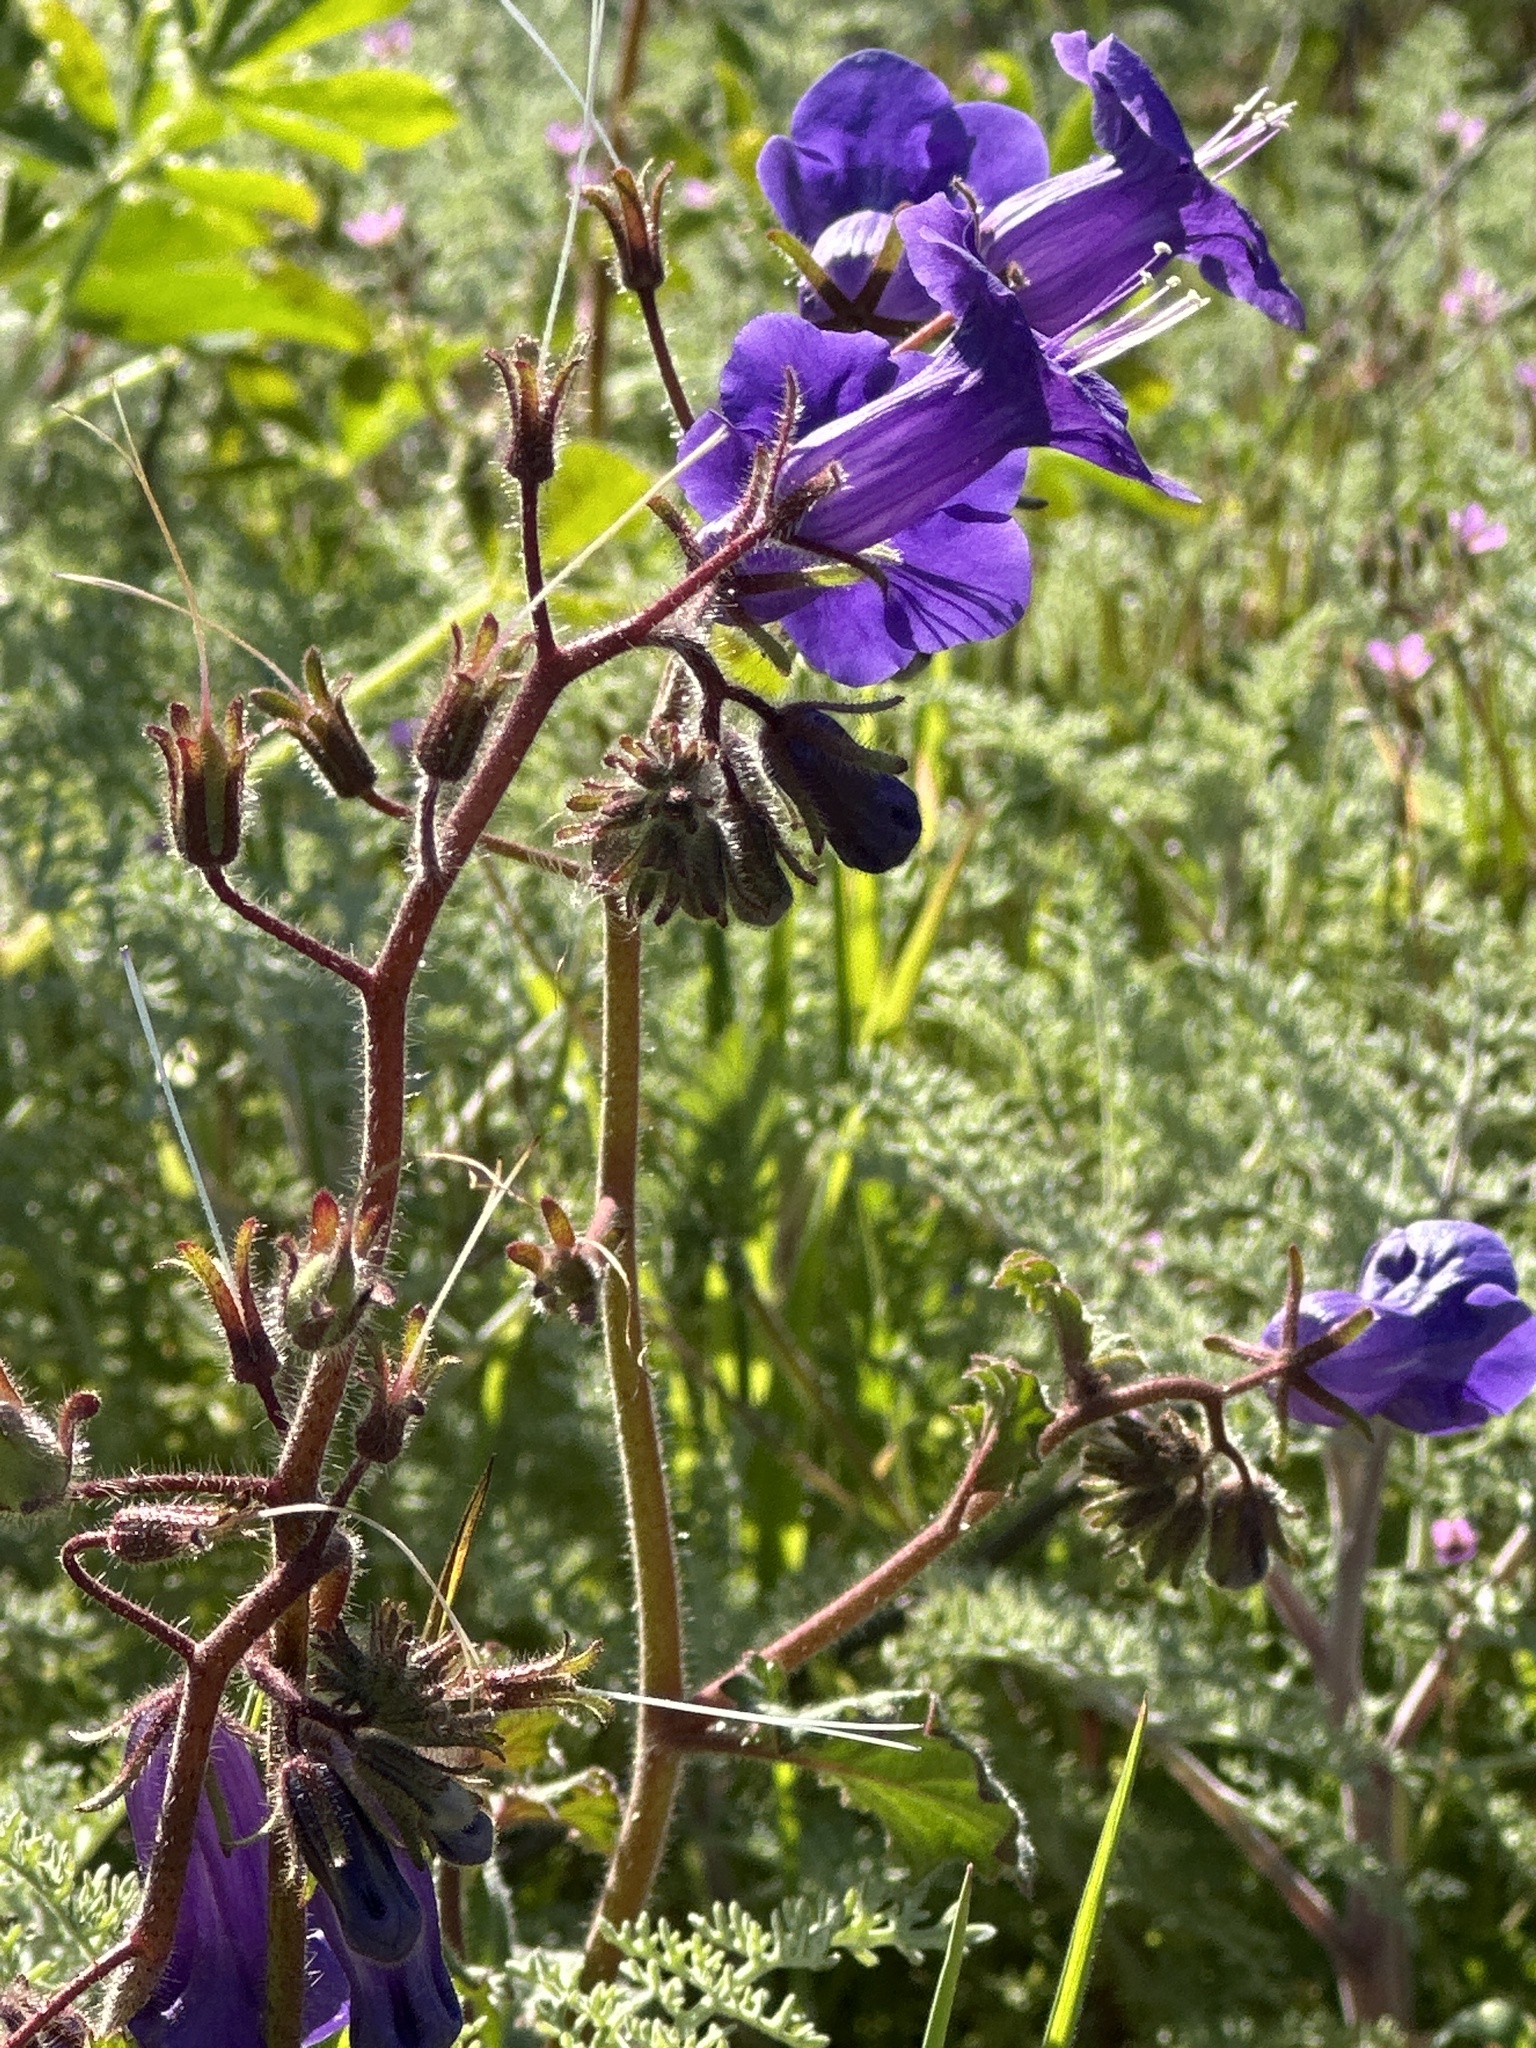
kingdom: Plantae
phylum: Tracheophyta
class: Magnoliopsida
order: Boraginales
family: Hydrophyllaceae
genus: Phacelia
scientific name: Phacelia minor
